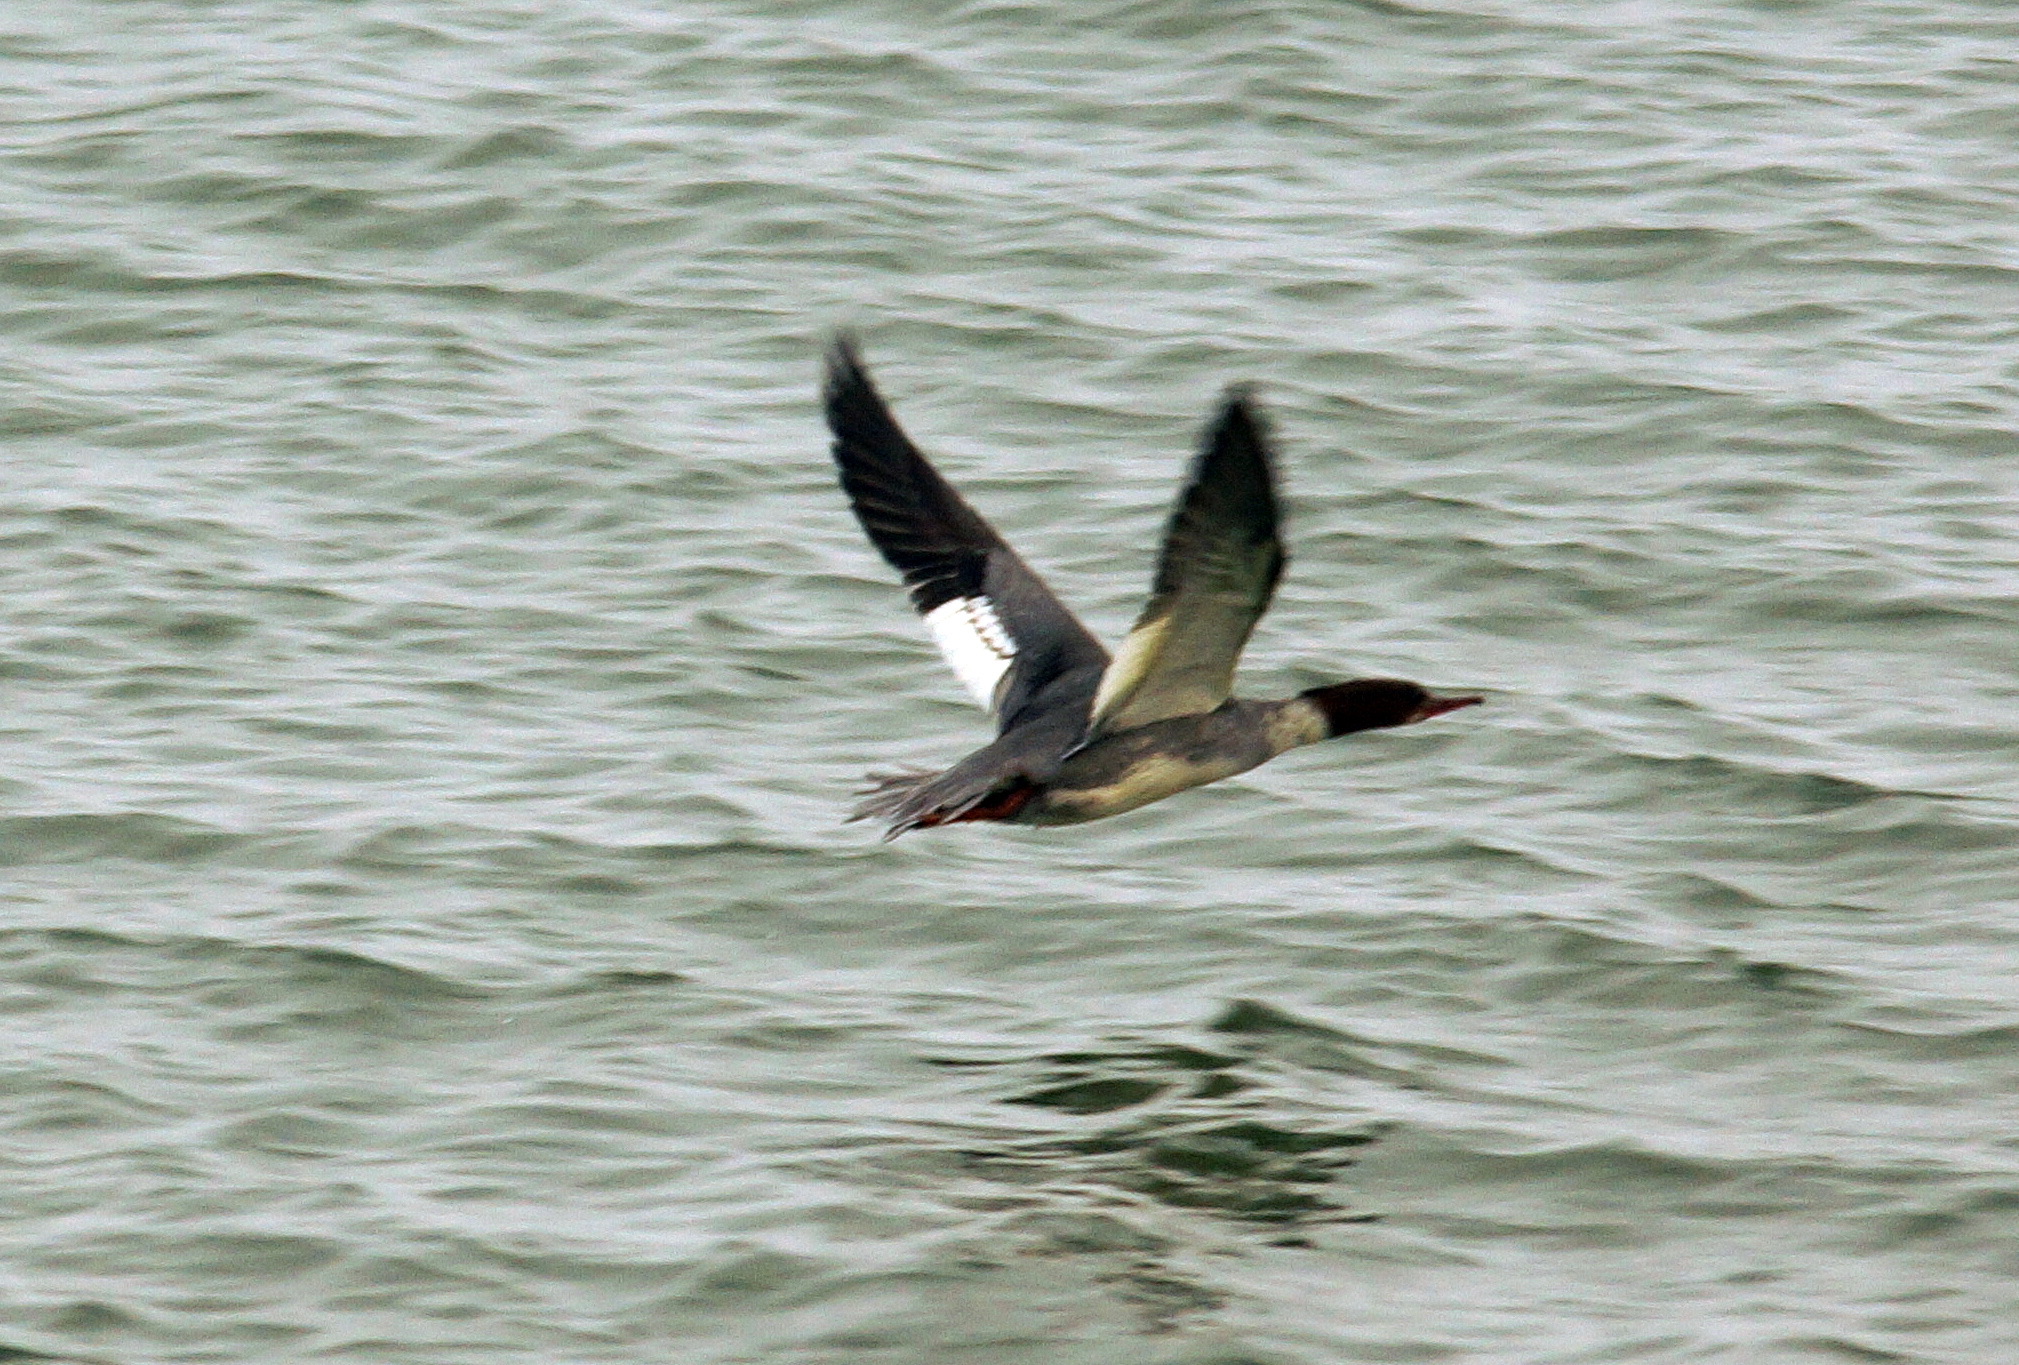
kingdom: Animalia
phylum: Chordata
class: Aves
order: Anseriformes
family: Anatidae
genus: Mergus
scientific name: Mergus merganser
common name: Common merganser
